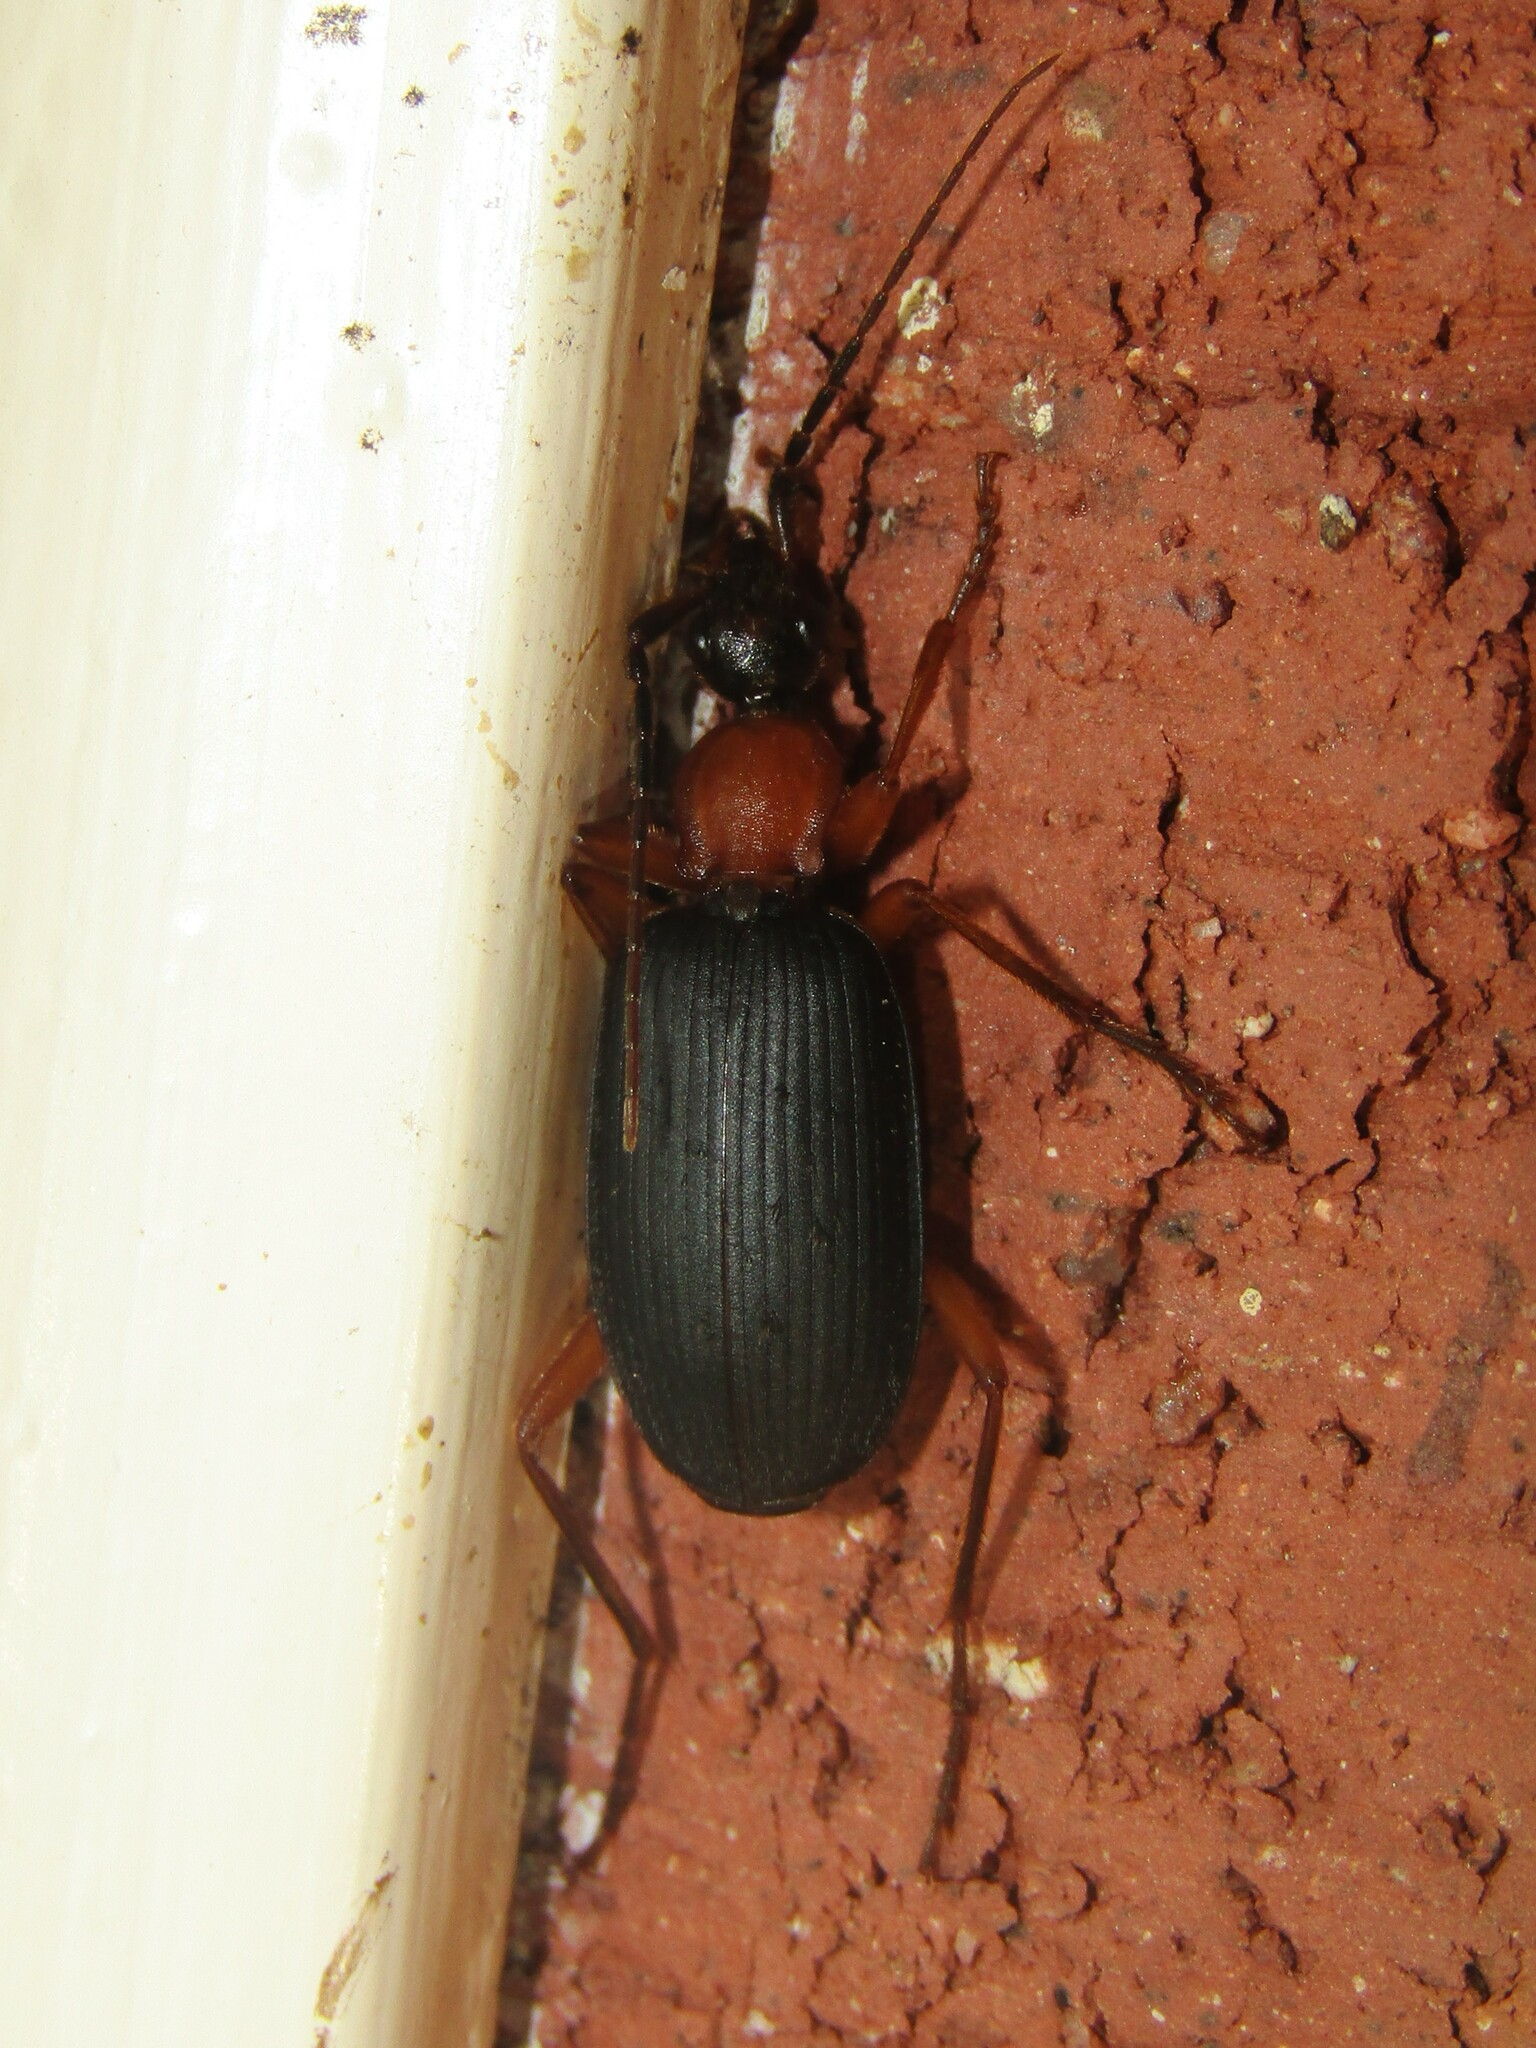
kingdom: Animalia
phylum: Arthropoda
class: Insecta
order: Coleoptera
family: Carabidae
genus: Galerita
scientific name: Galerita bicolor
